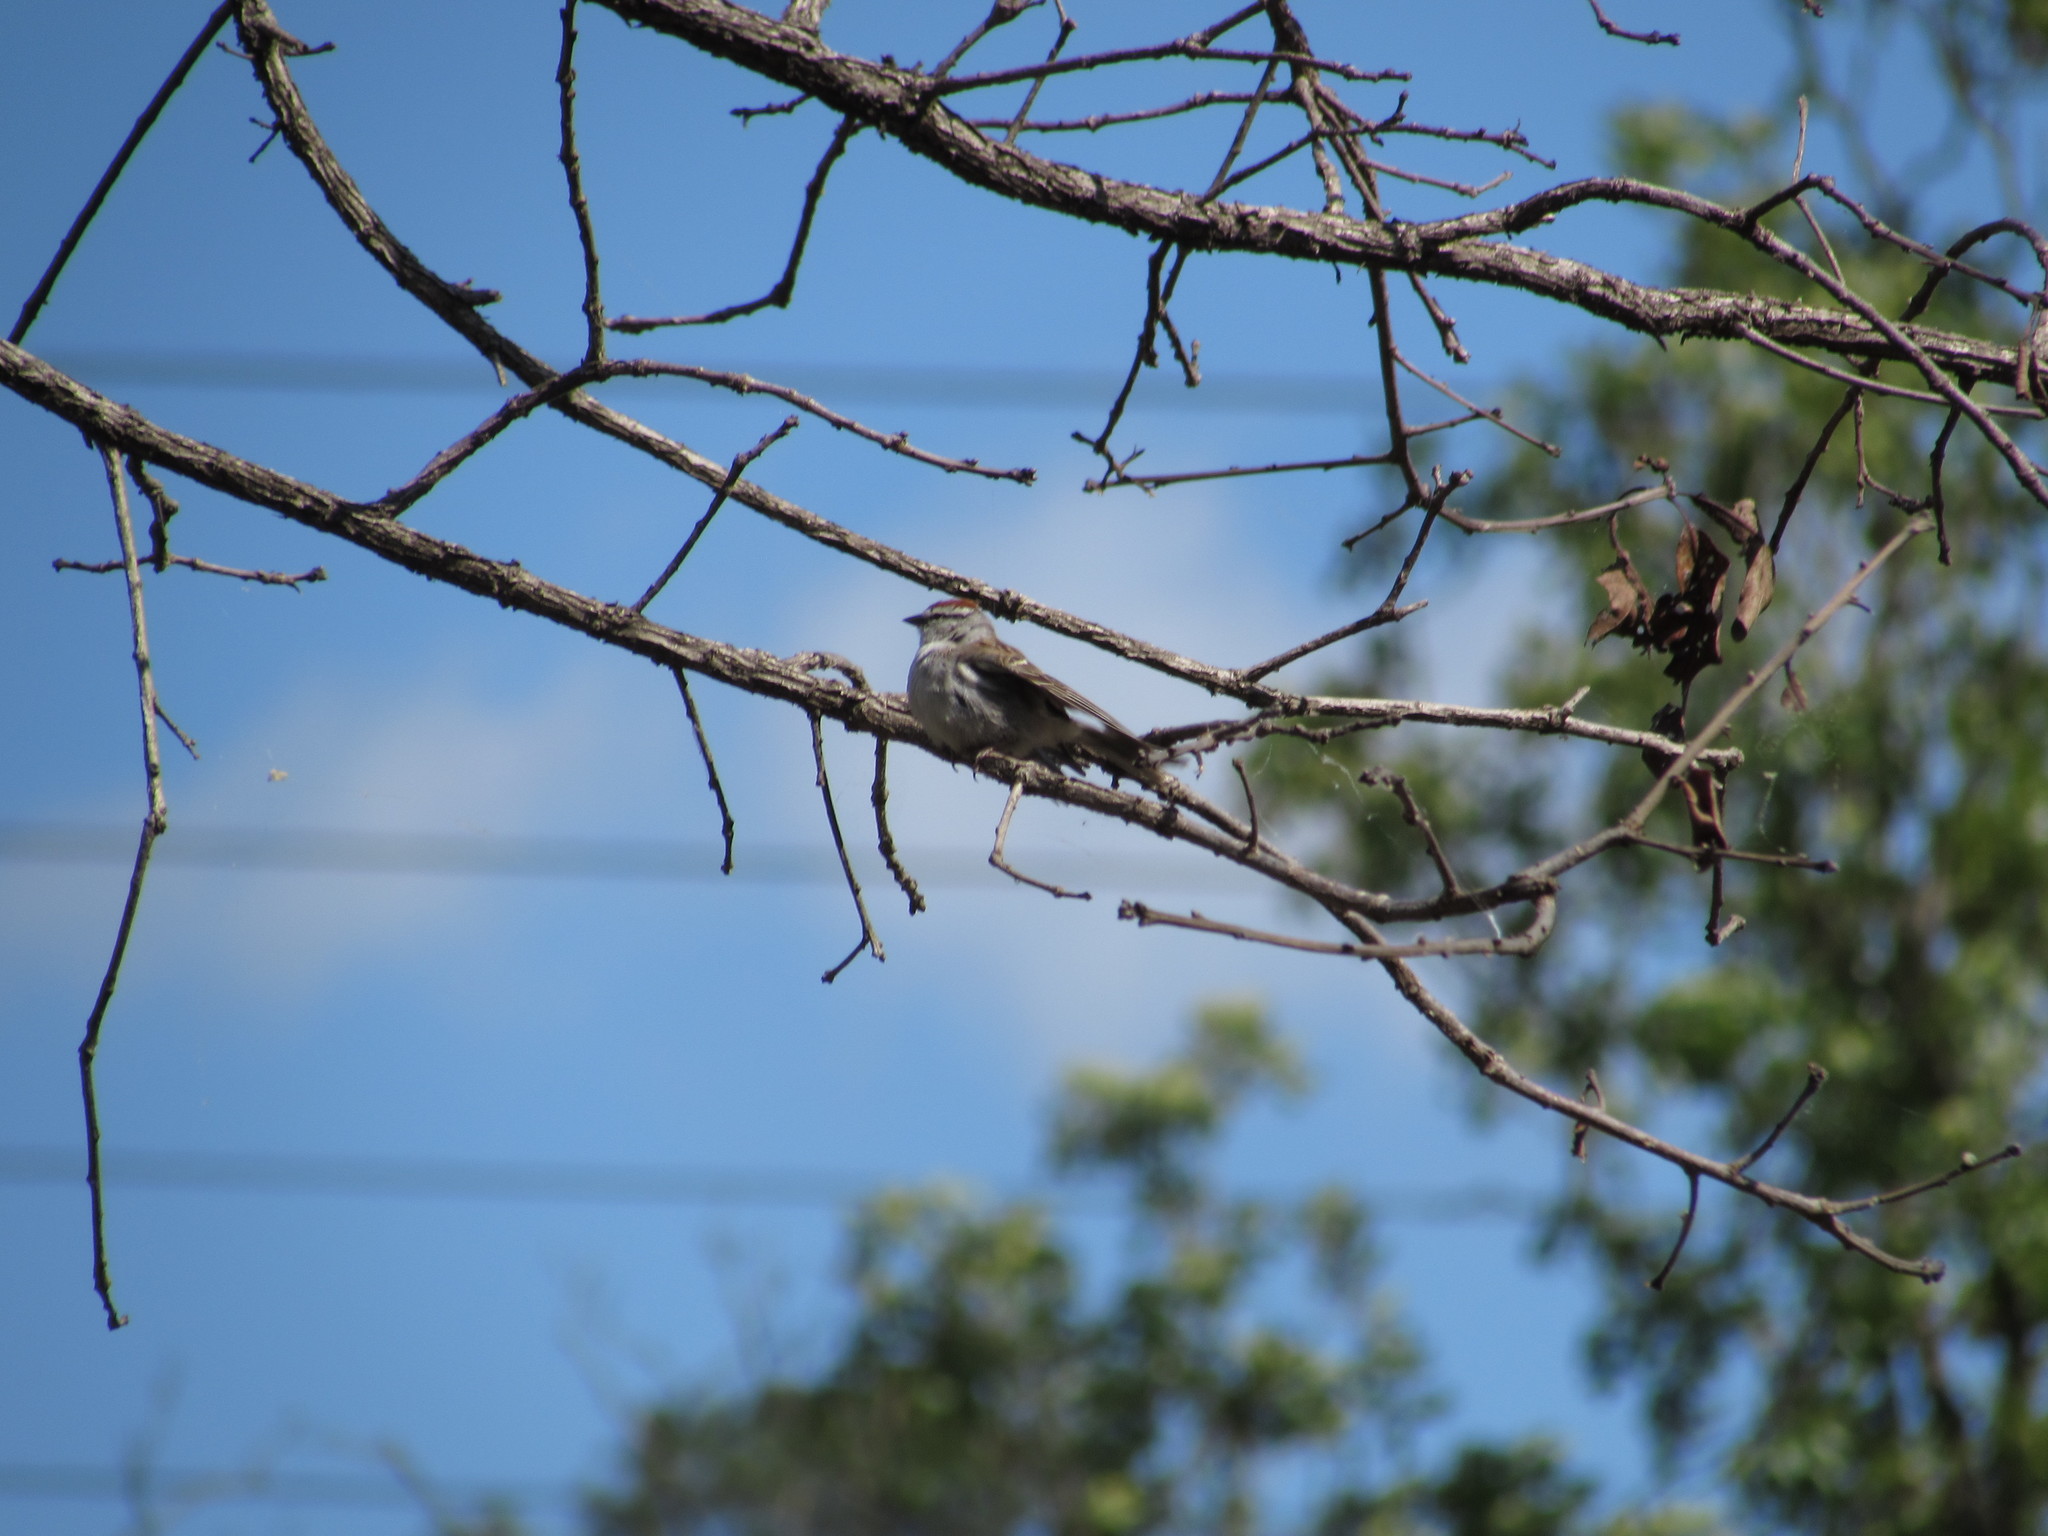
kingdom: Animalia
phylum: Chordata
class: Aves
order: Passeriformes
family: Passerellidae
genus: Spizella
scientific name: Spizella passerina
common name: Chipping sparrow
